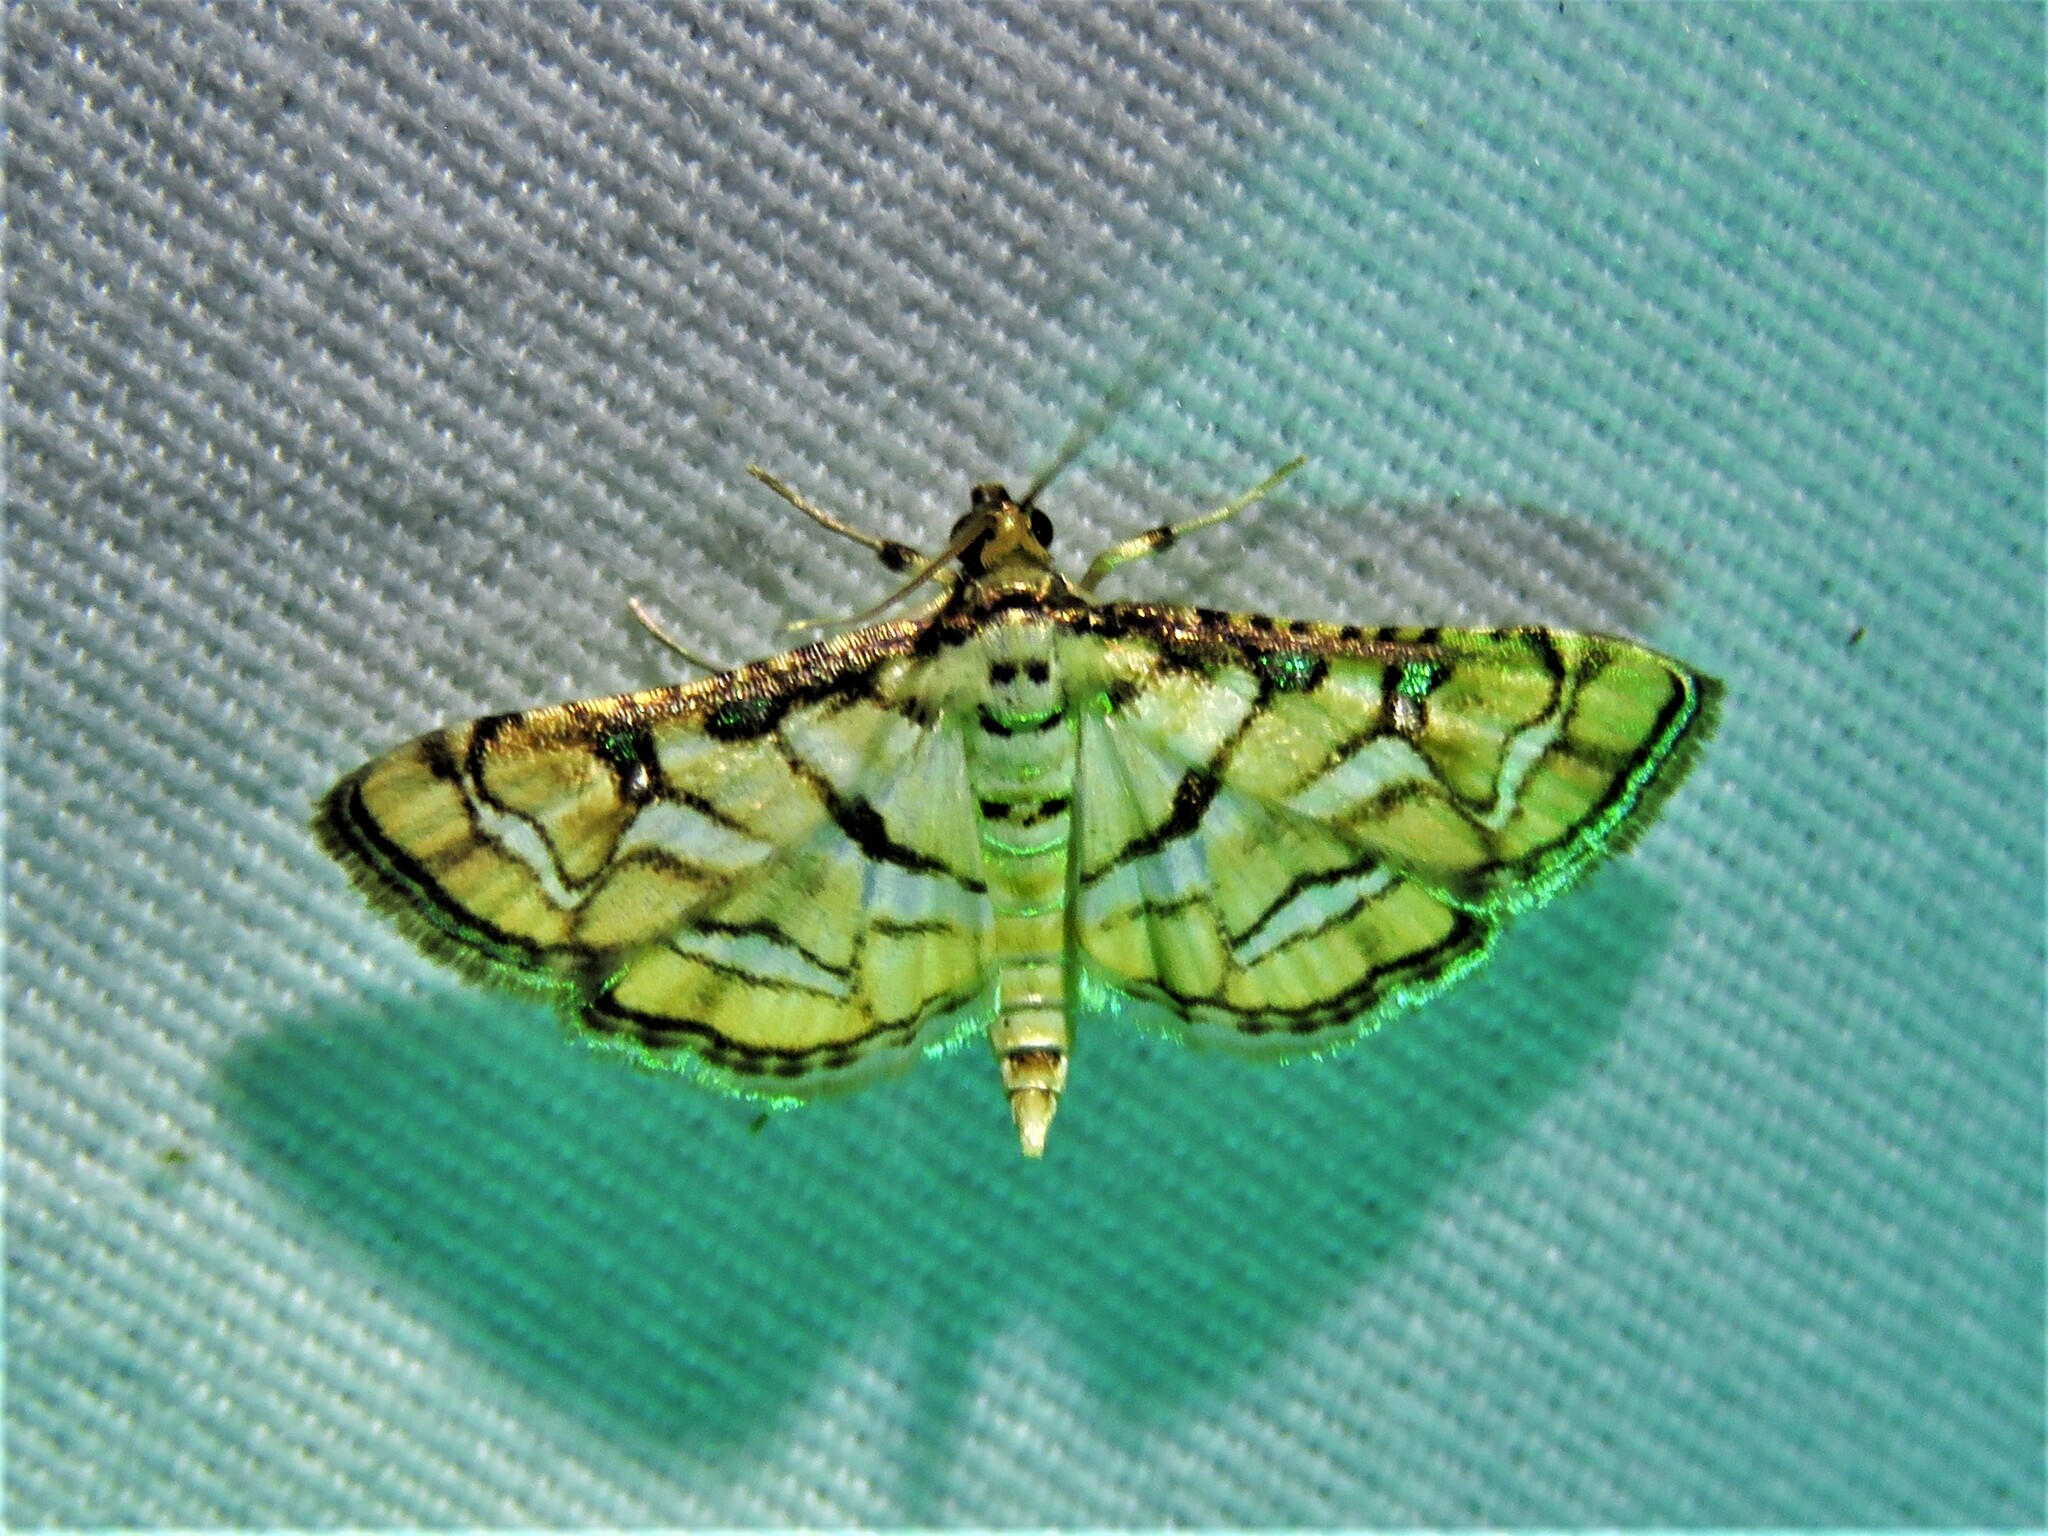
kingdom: Animalia
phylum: Arthropoda
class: Insecta
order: Lepidoptera
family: Crambidae
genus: Hileithia
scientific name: Hileithia magualis
